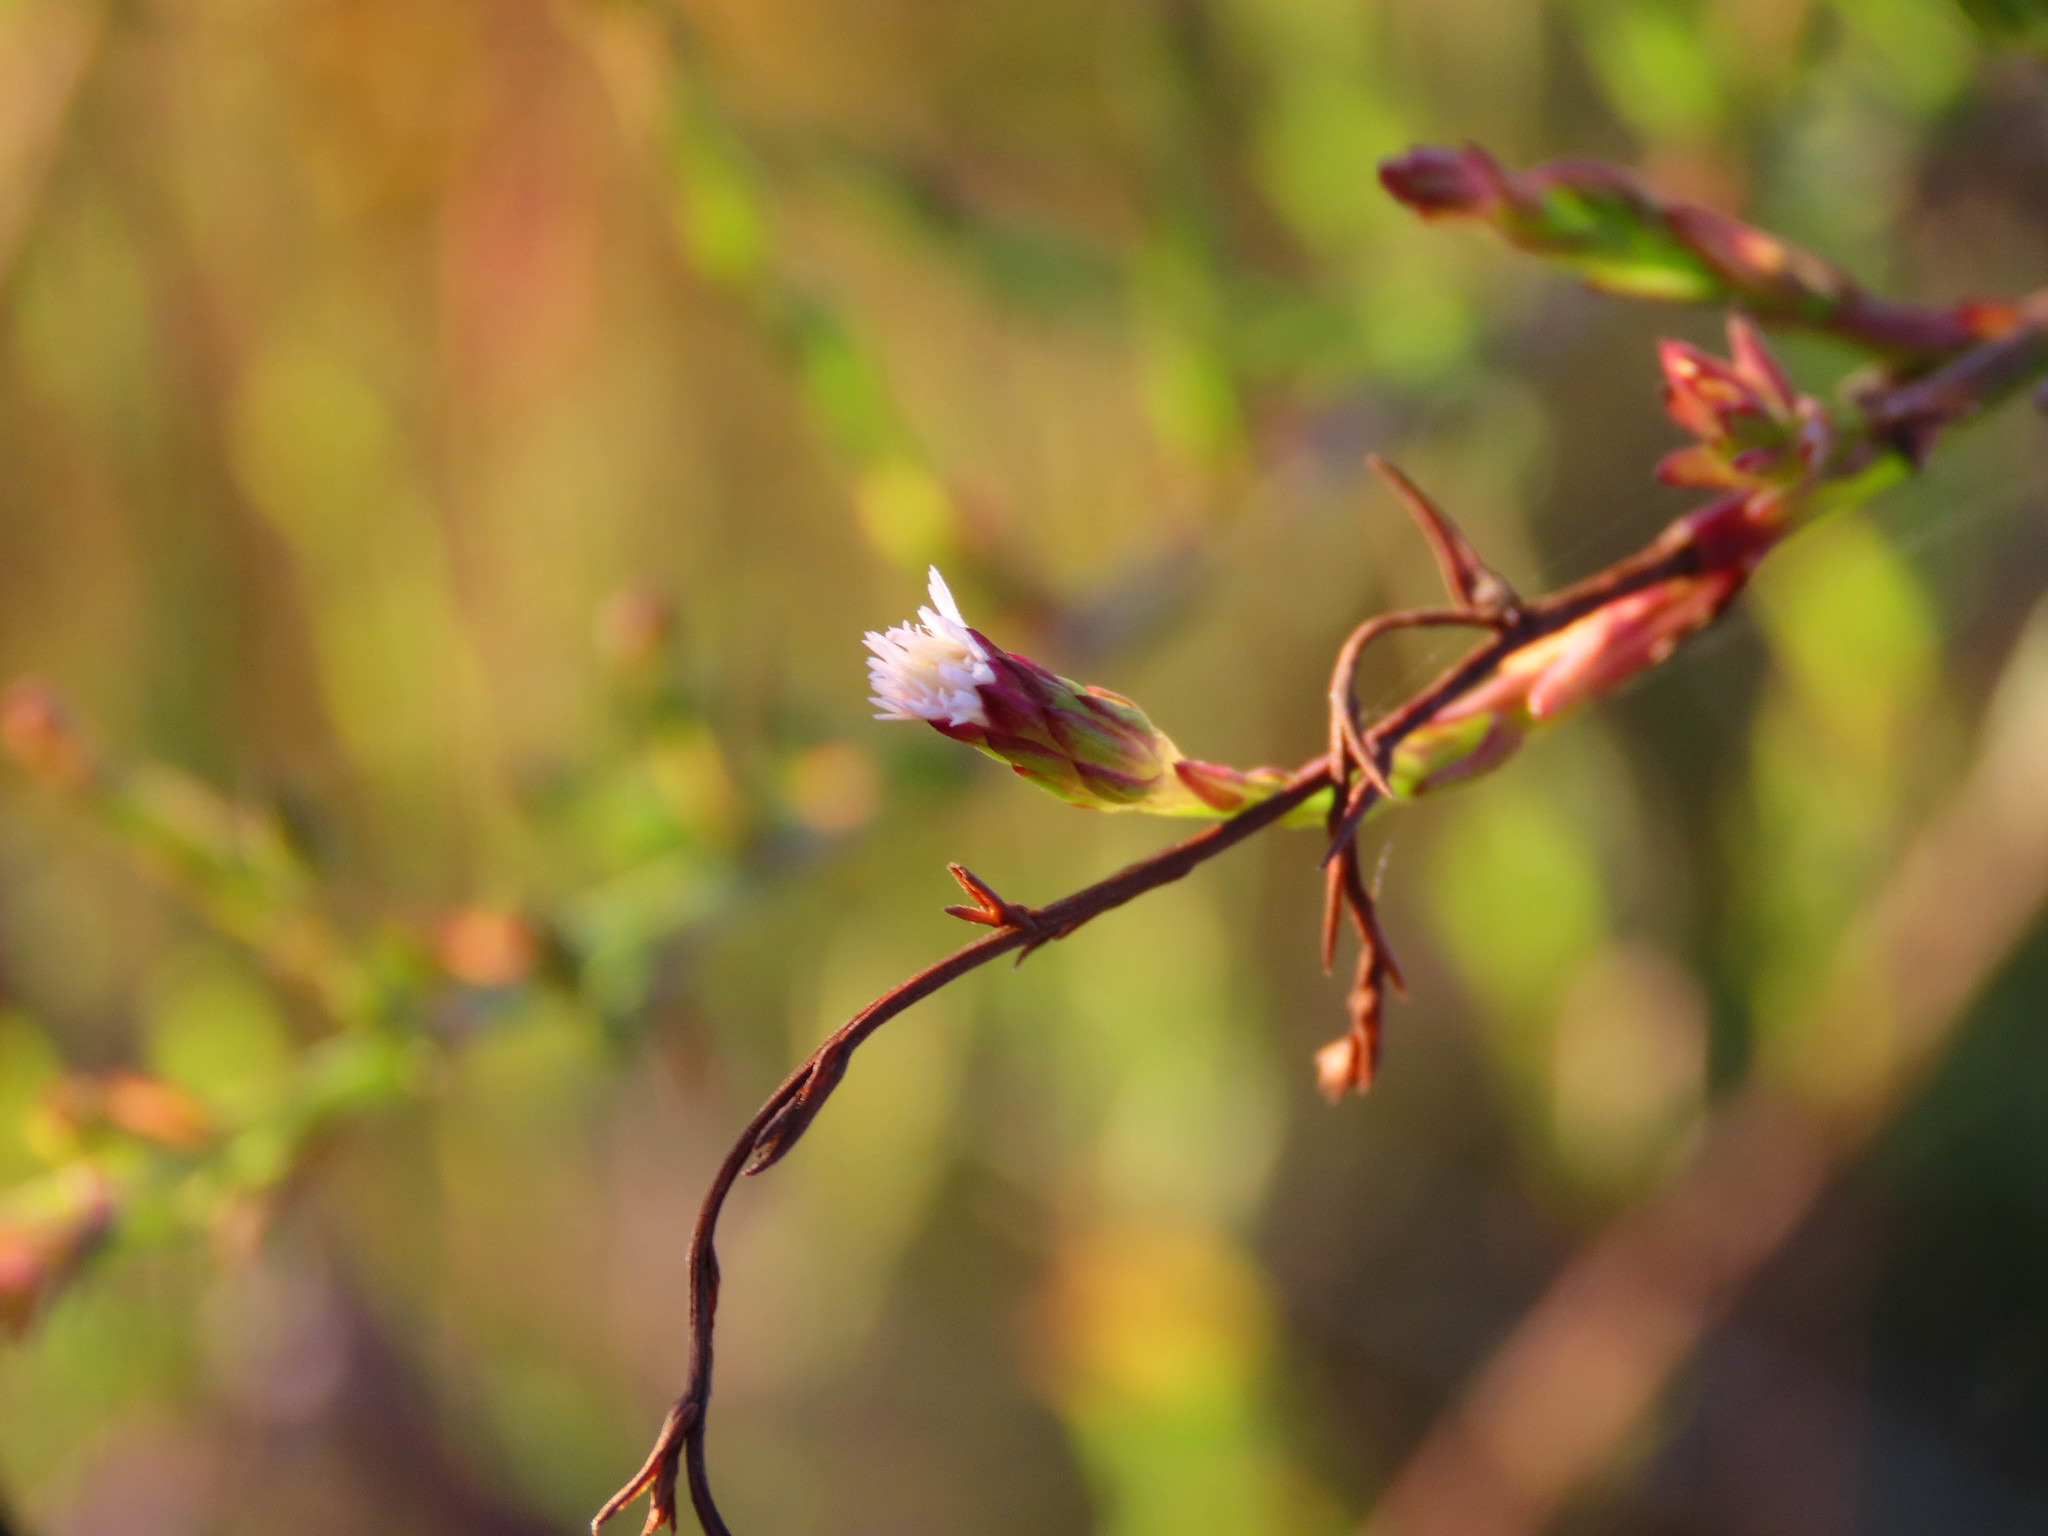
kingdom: Plantae
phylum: Tracheophyta
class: Magnoliopsida
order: Asterales
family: Asteraceae
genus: Symphyotrichum
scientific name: Symphyotrichum squamatum
